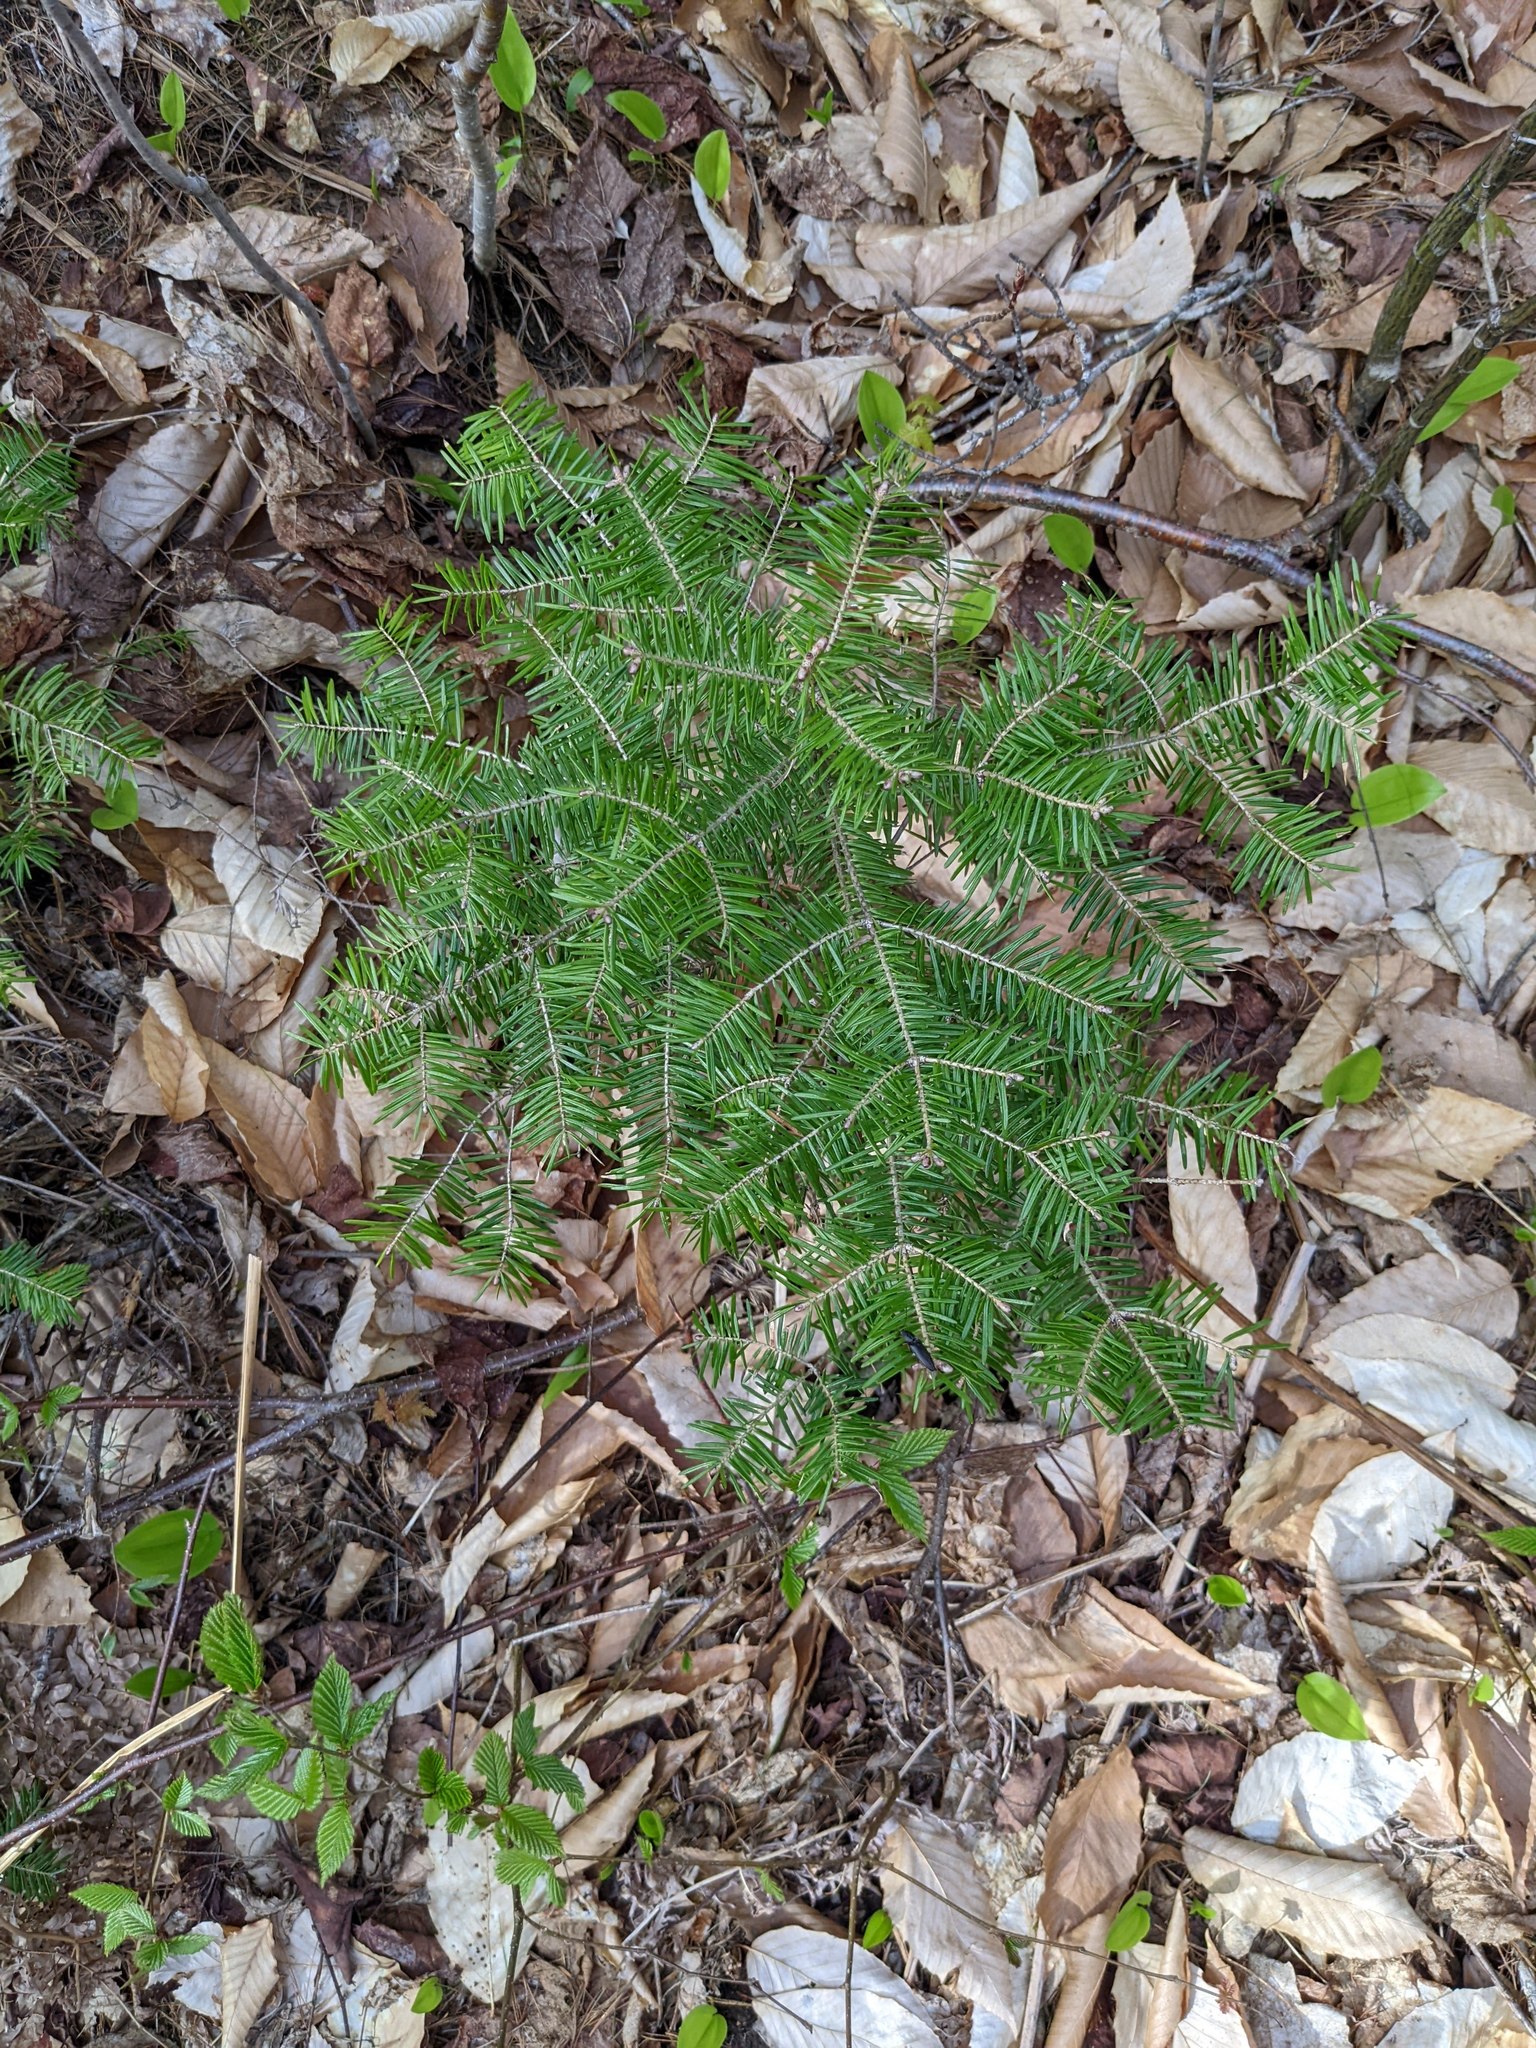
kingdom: Plantae
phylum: Tracheophyta
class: Pinopsida
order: Pinales
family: Pinaceae
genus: Abies
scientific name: Abies balsamea
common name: Balsam fir
